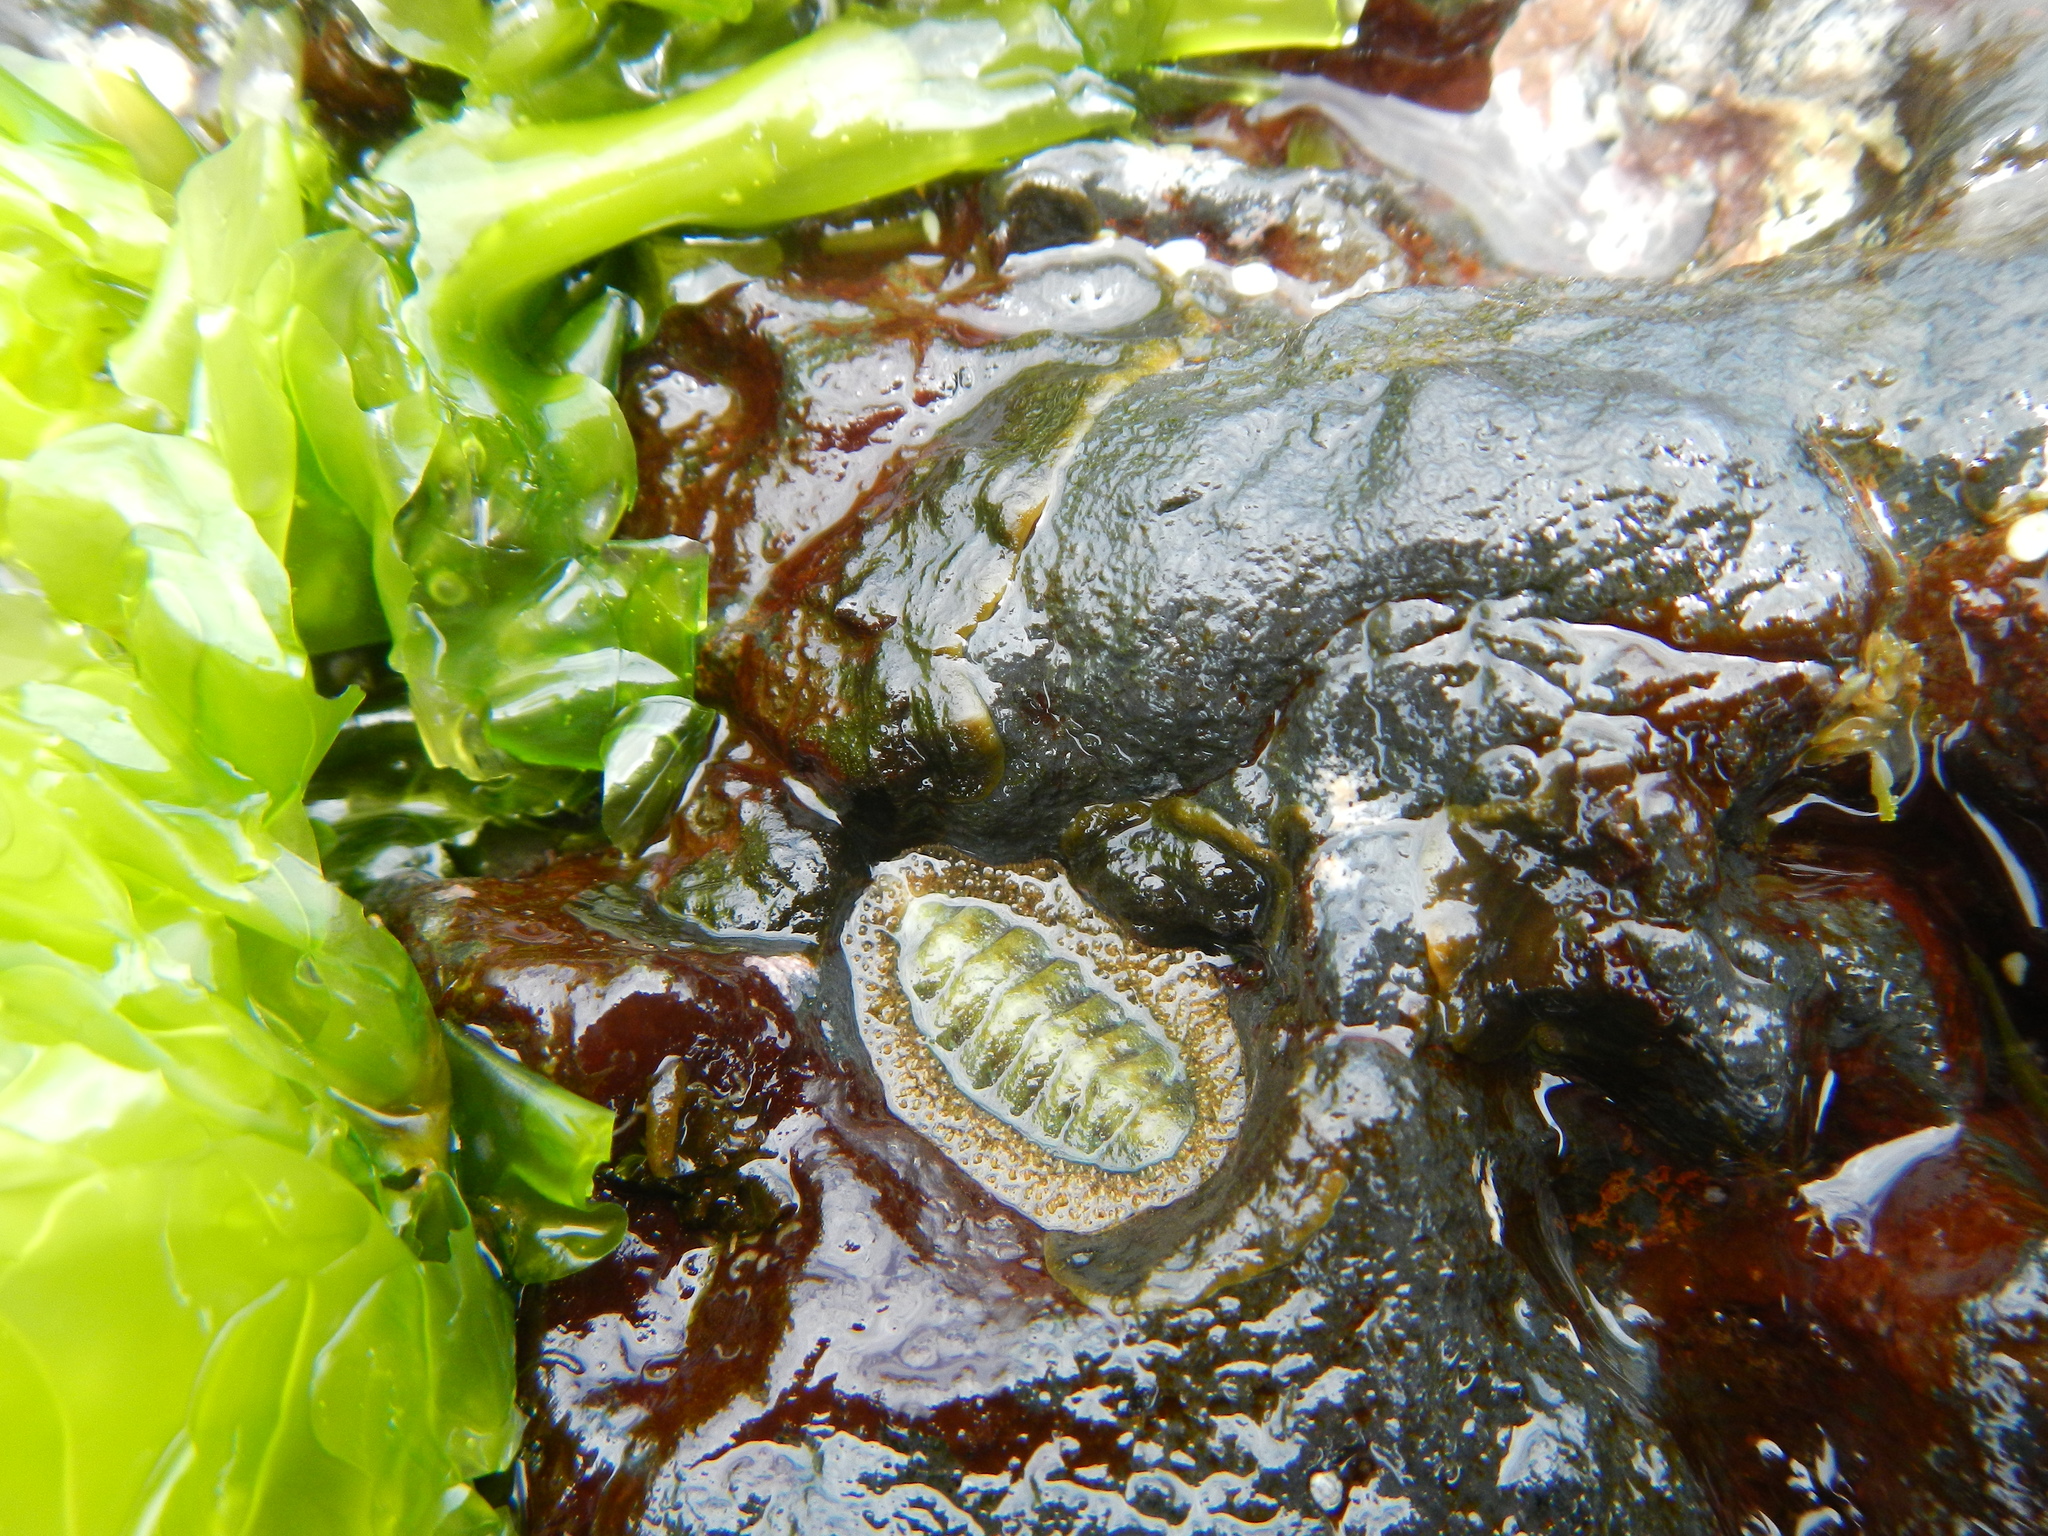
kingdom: Animalia
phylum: Mollusca
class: Polyplacophora
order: Chitonida
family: Mopaliidae
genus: Plaxiphora
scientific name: Plaxiphora mercatoris
